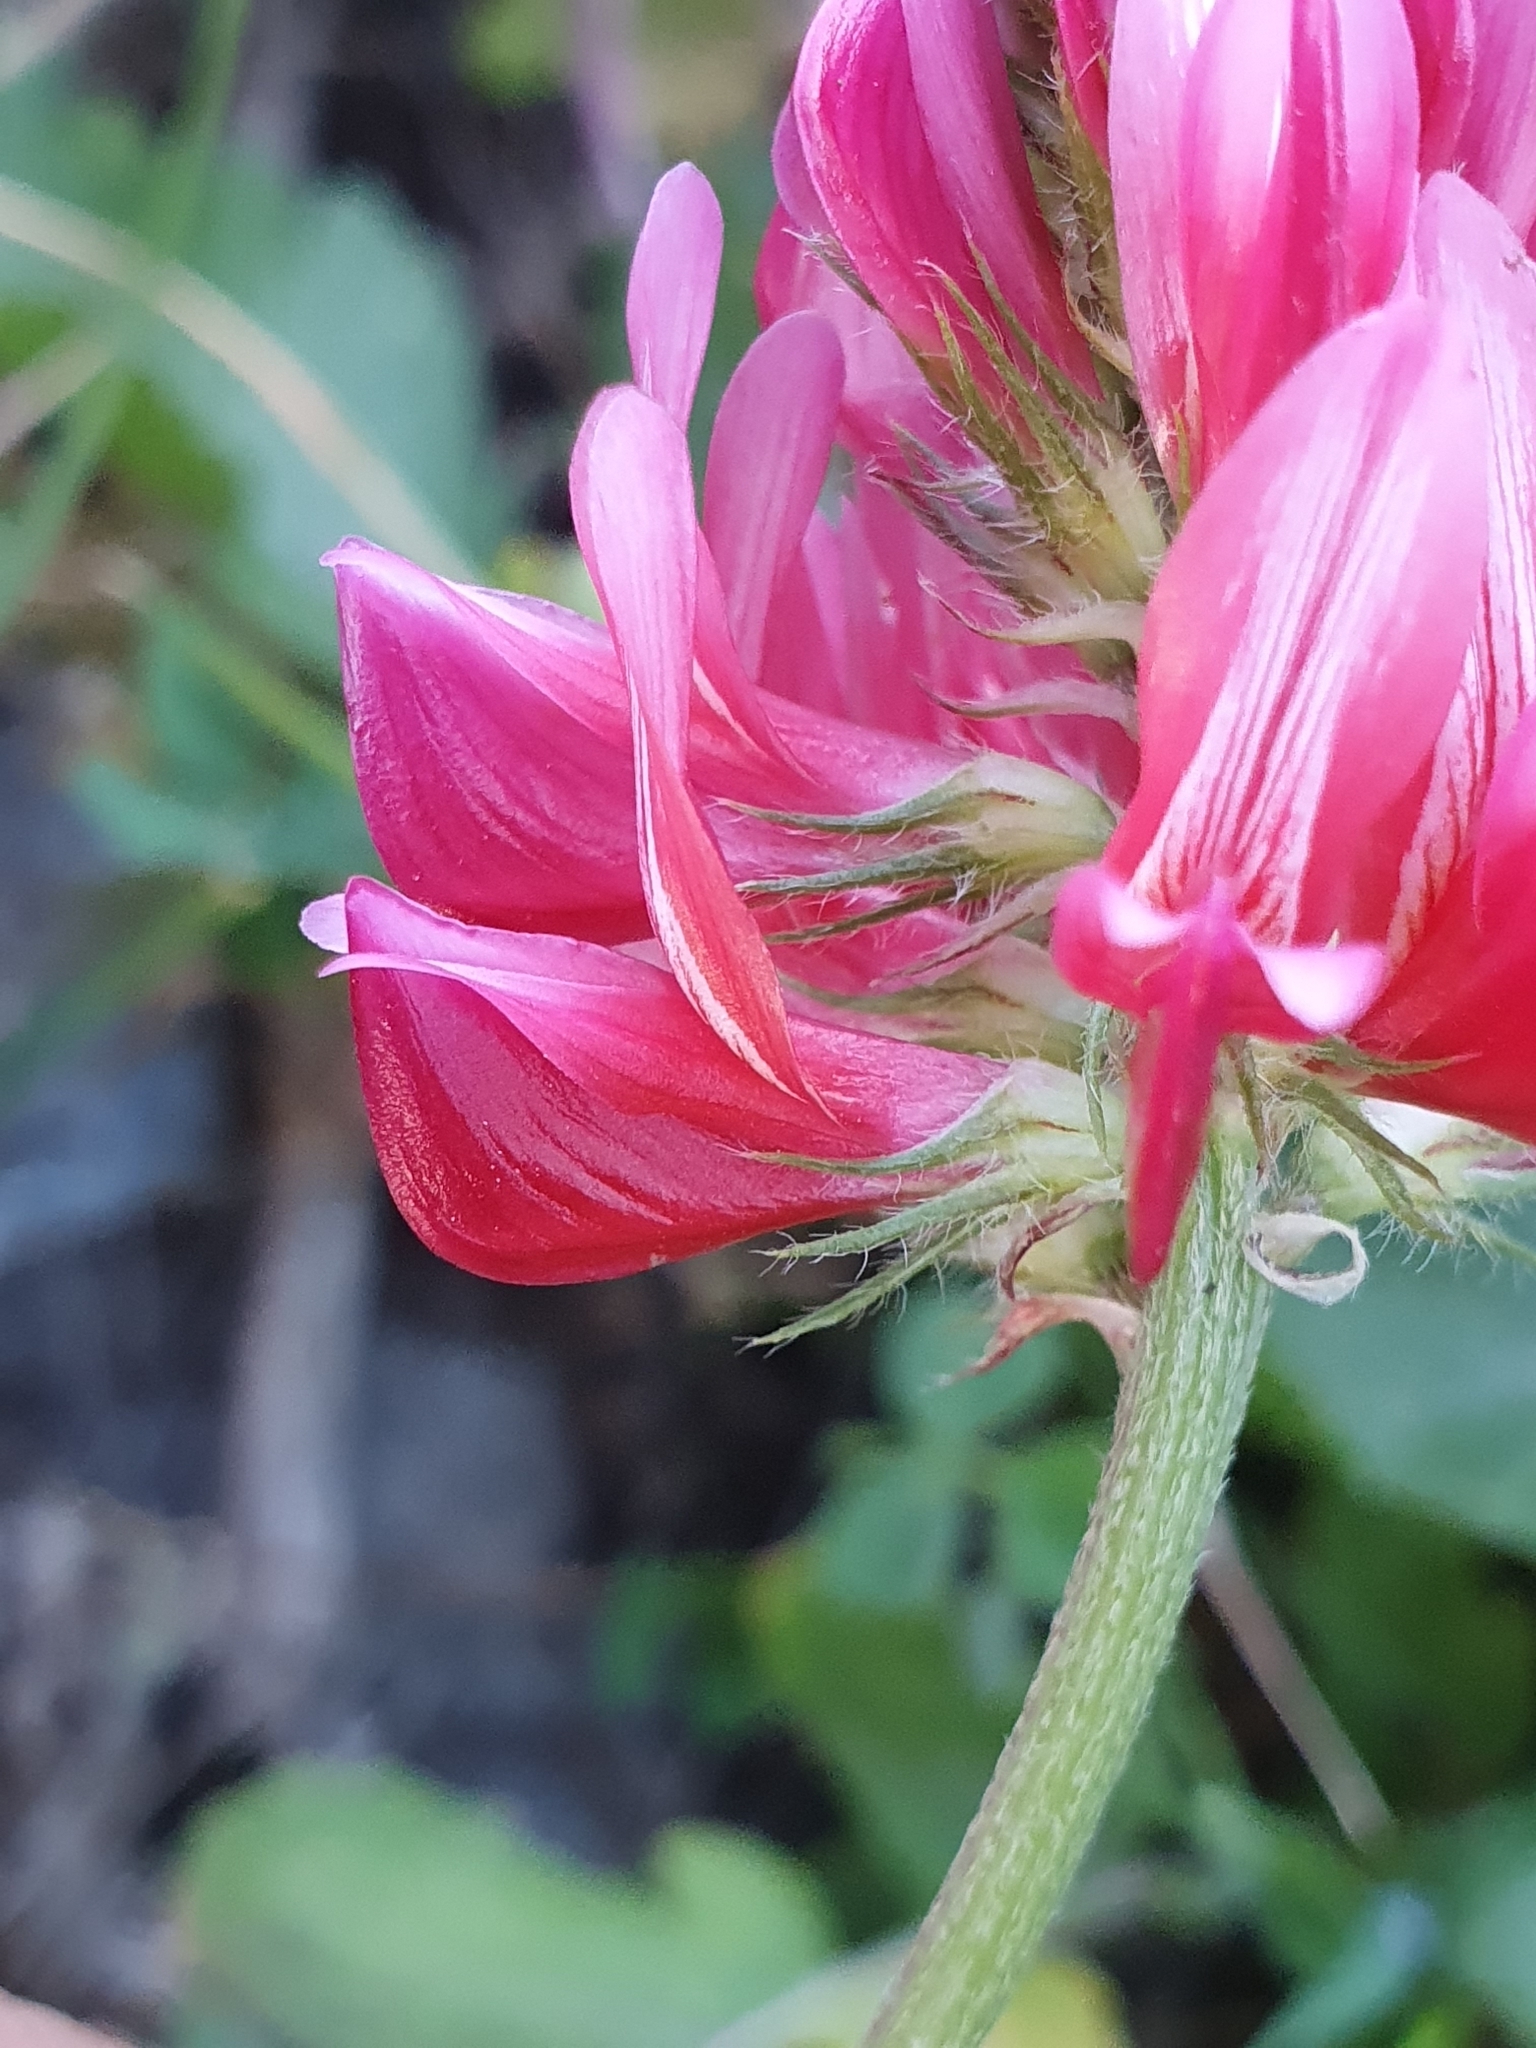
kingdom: Plantae
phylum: Tracheophyta
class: Magnoliopsida
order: Fabales
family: Fabaceae
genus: Sulla
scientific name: Sulla coronaria
